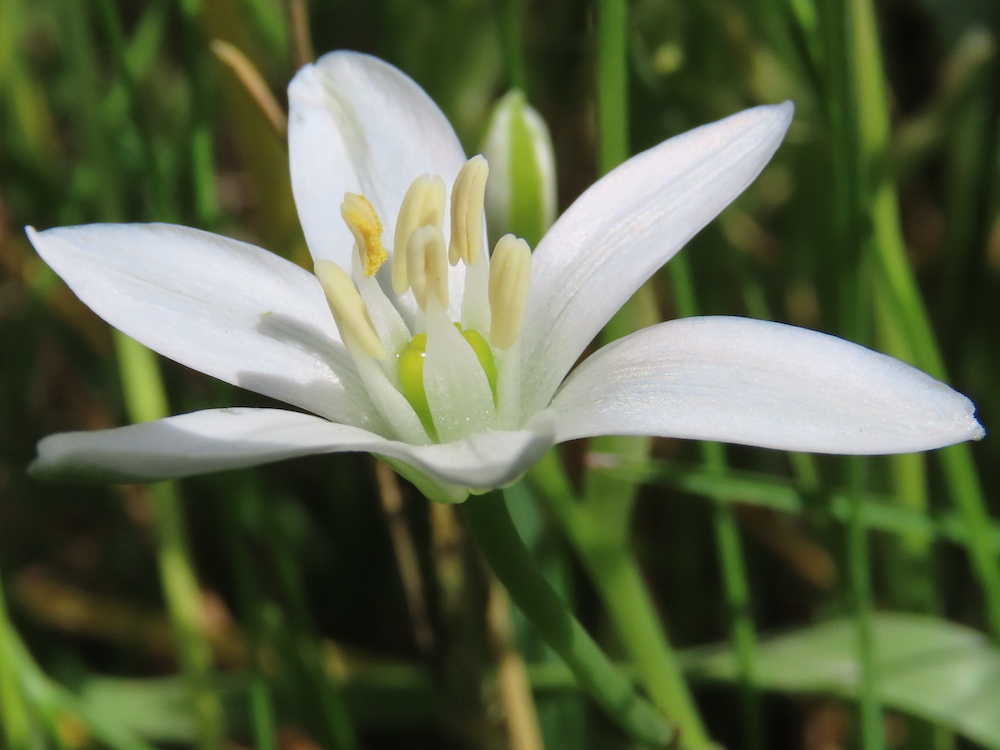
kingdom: Plantae
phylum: Tracheophyta
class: Liliopsida
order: Asparagales
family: Asparagaceae
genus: Ornithogalum
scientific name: Ornithogalum umbellatum
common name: Garden star-of-bethlehem
